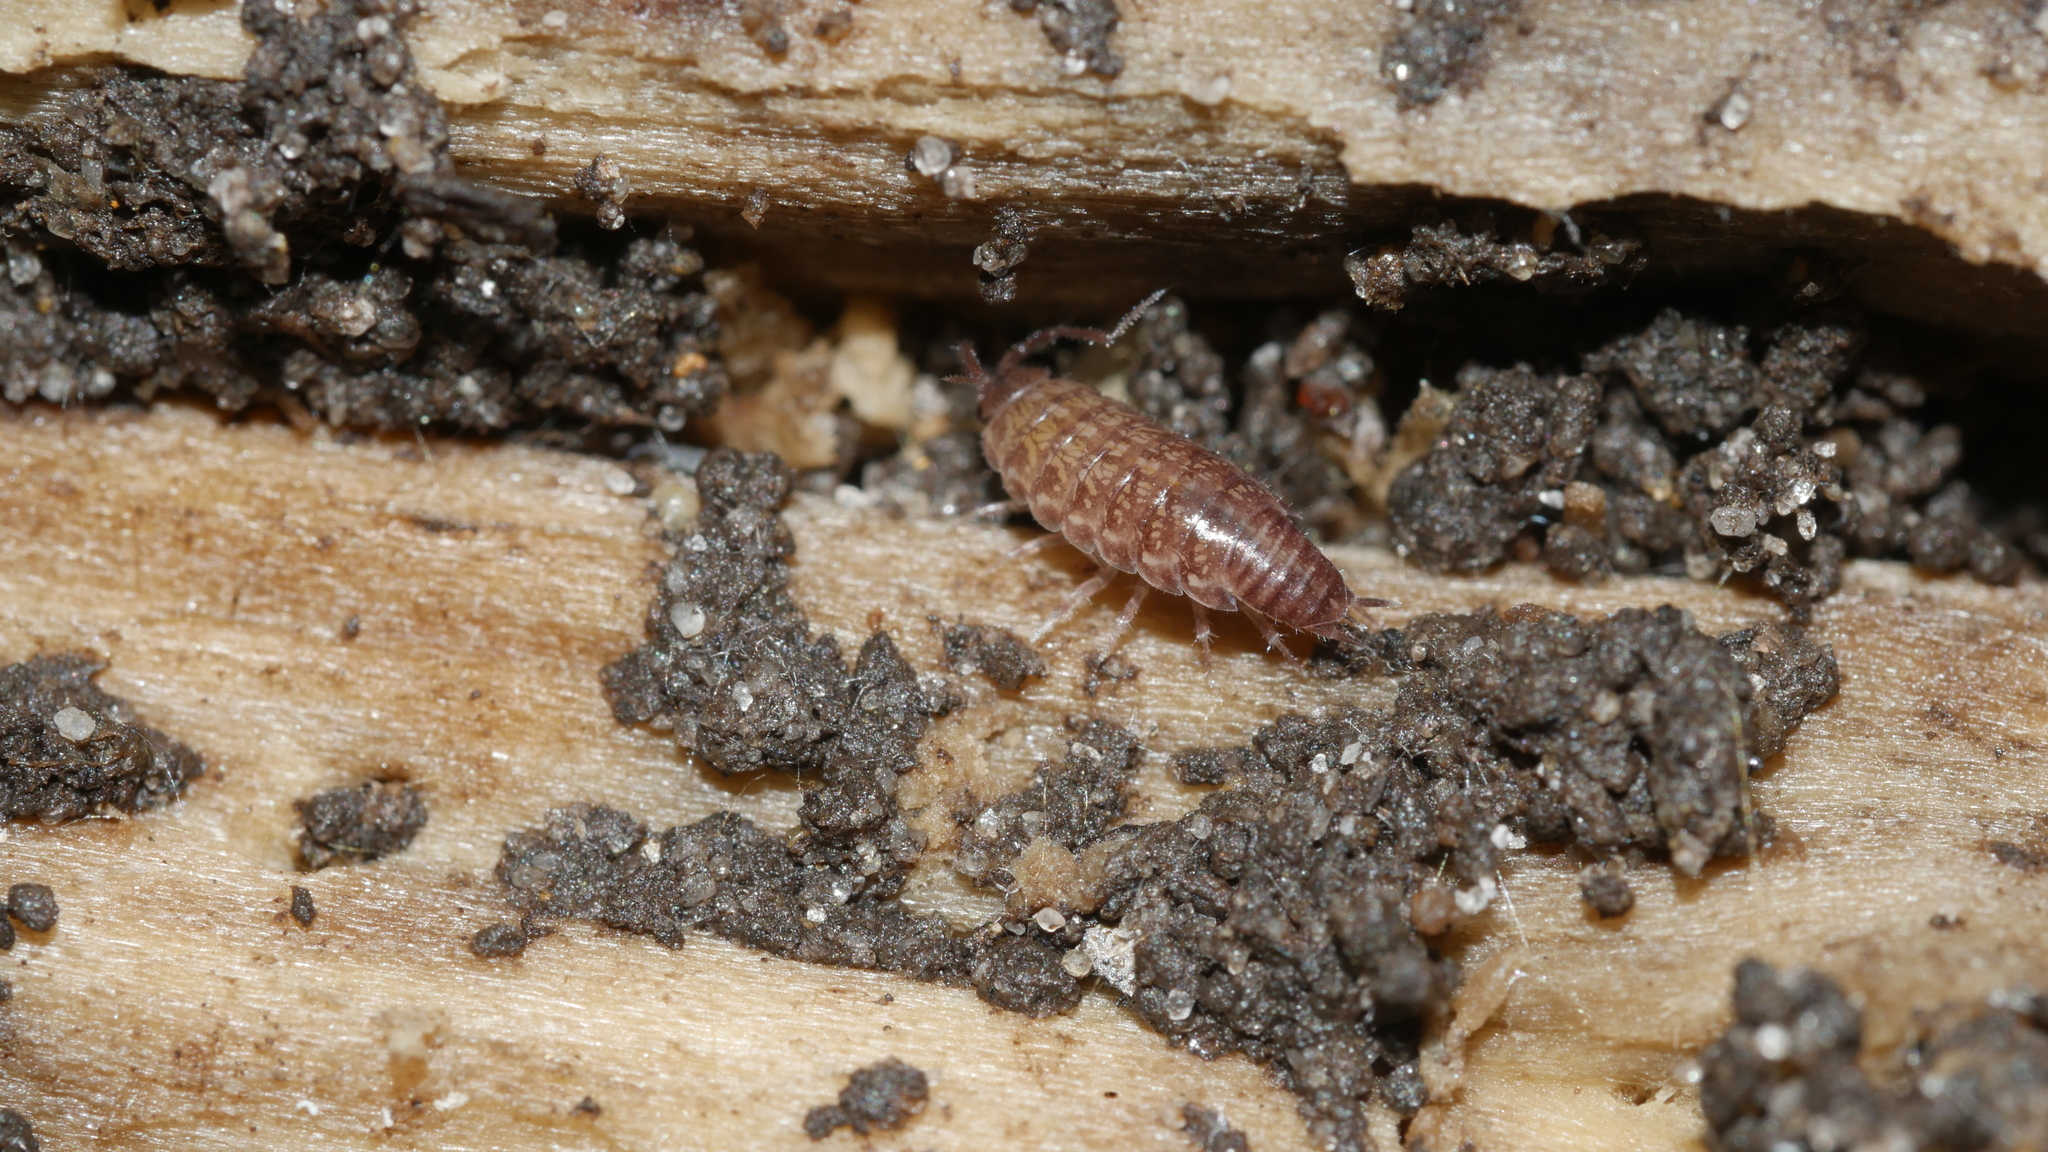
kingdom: Animalia
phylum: Arthropoda
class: Malacostraca
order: Isopoda
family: Philosciidae
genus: Chaetophiloscia
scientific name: Chaetophiloscia sicula
